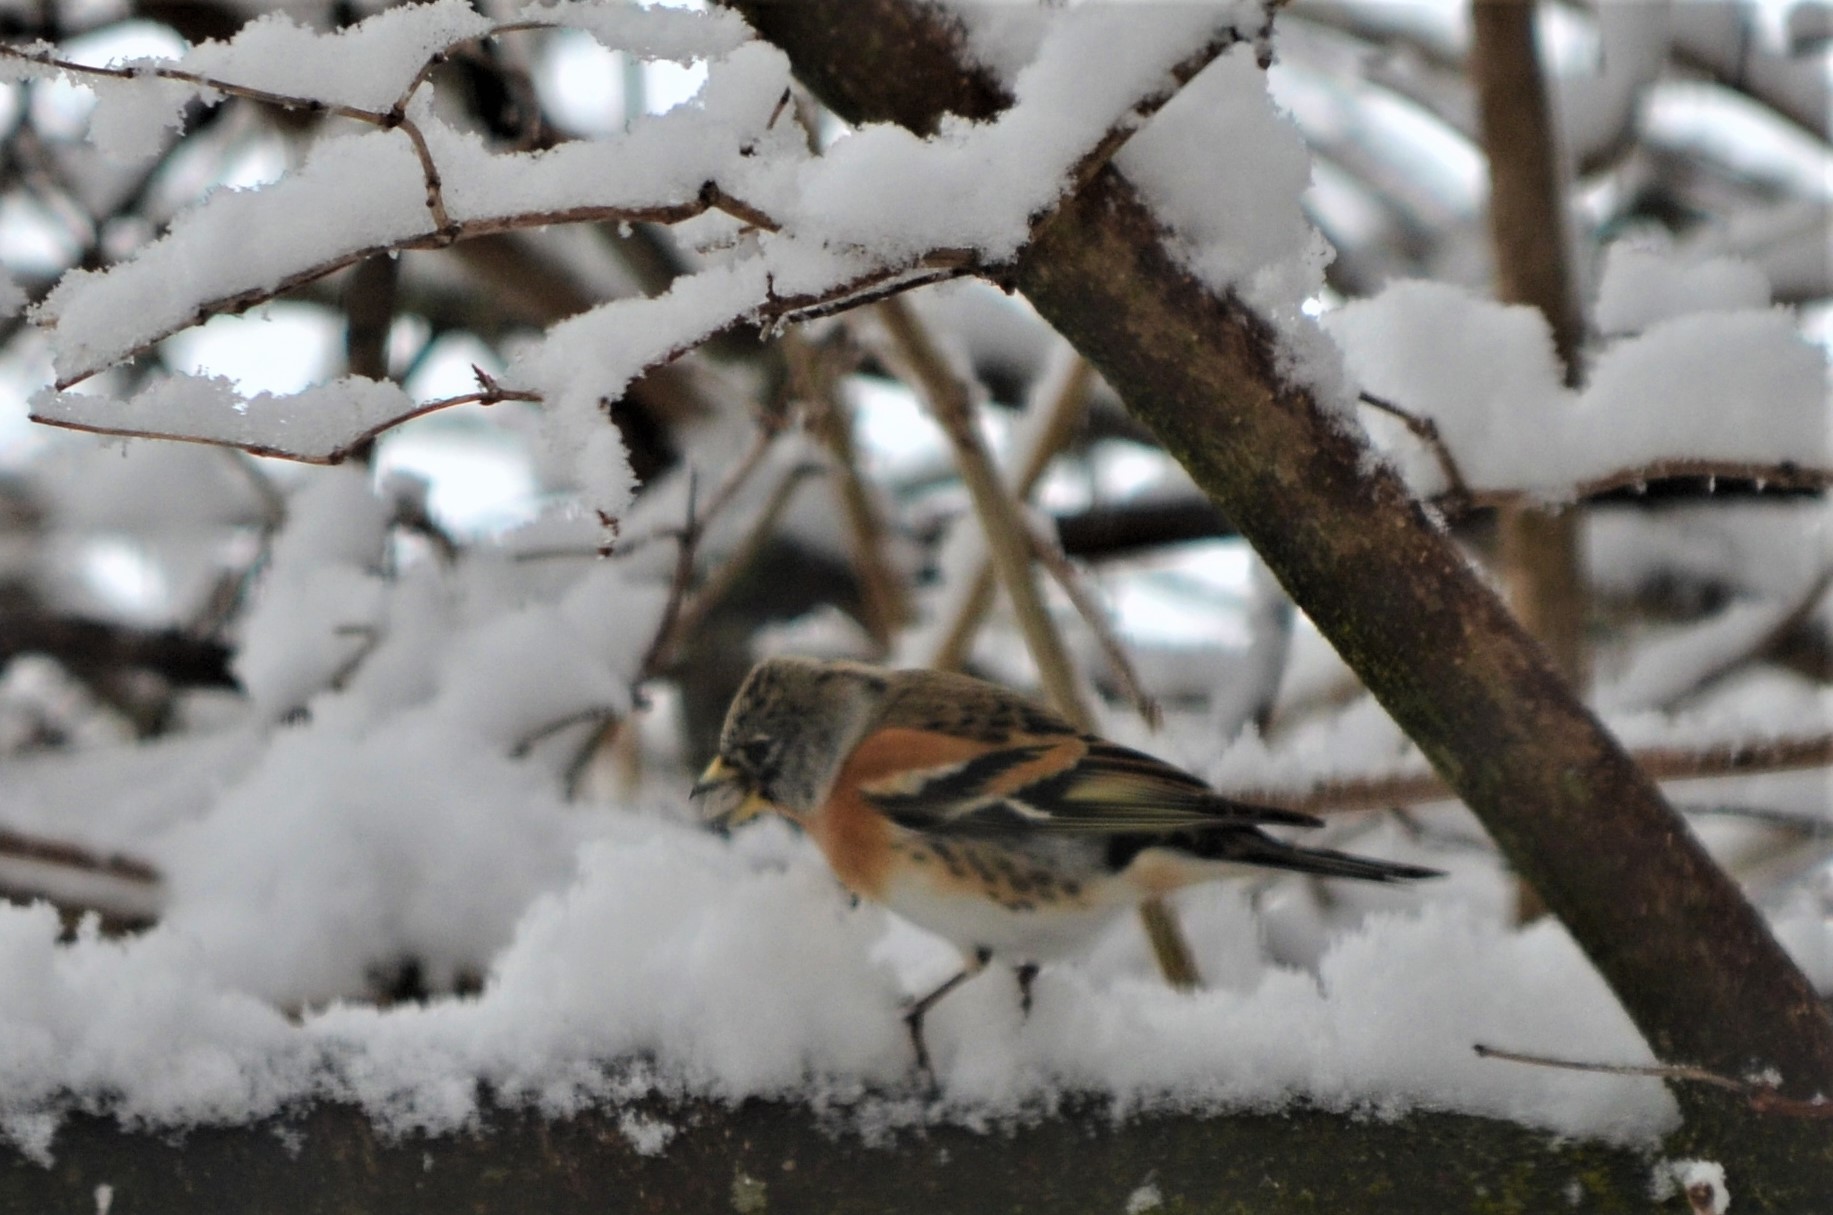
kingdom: Animalia
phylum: Chordata
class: Aves
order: Passeriformes
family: Fringillidae
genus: Fringilla
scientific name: Fringilla montifringilla
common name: Brambling
